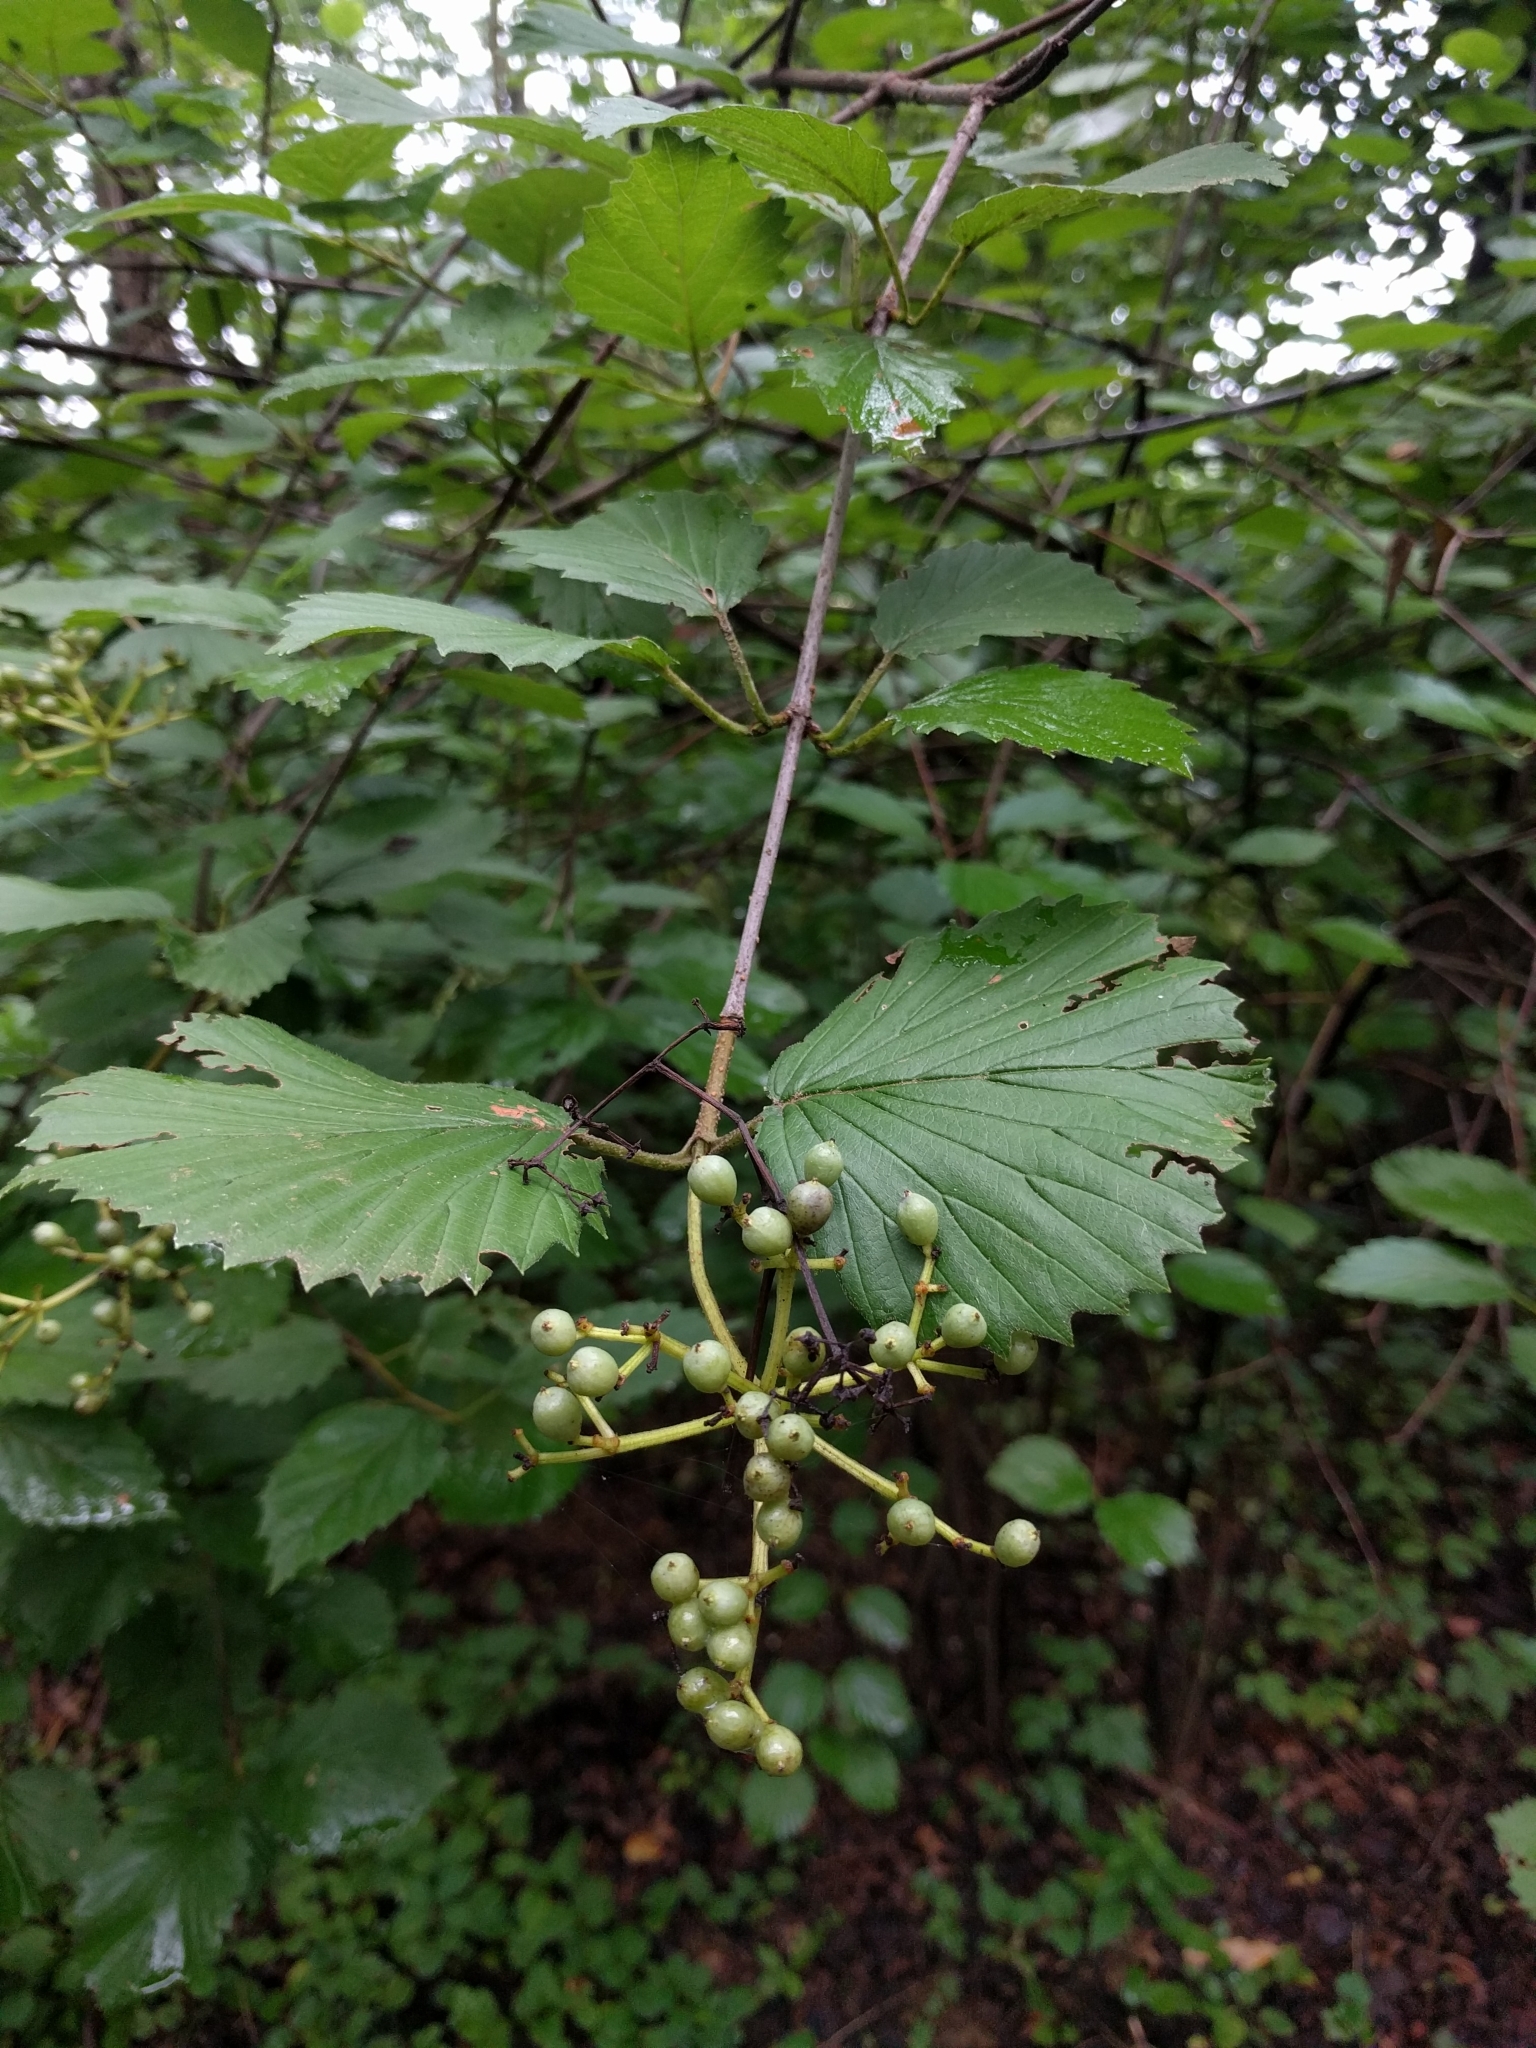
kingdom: Plantae
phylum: Tracheophyta
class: Magnoliopsida
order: Dipsacales
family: Viburnaceae
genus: Viburnum
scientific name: Viburnum dentatum
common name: Arrow-wood
